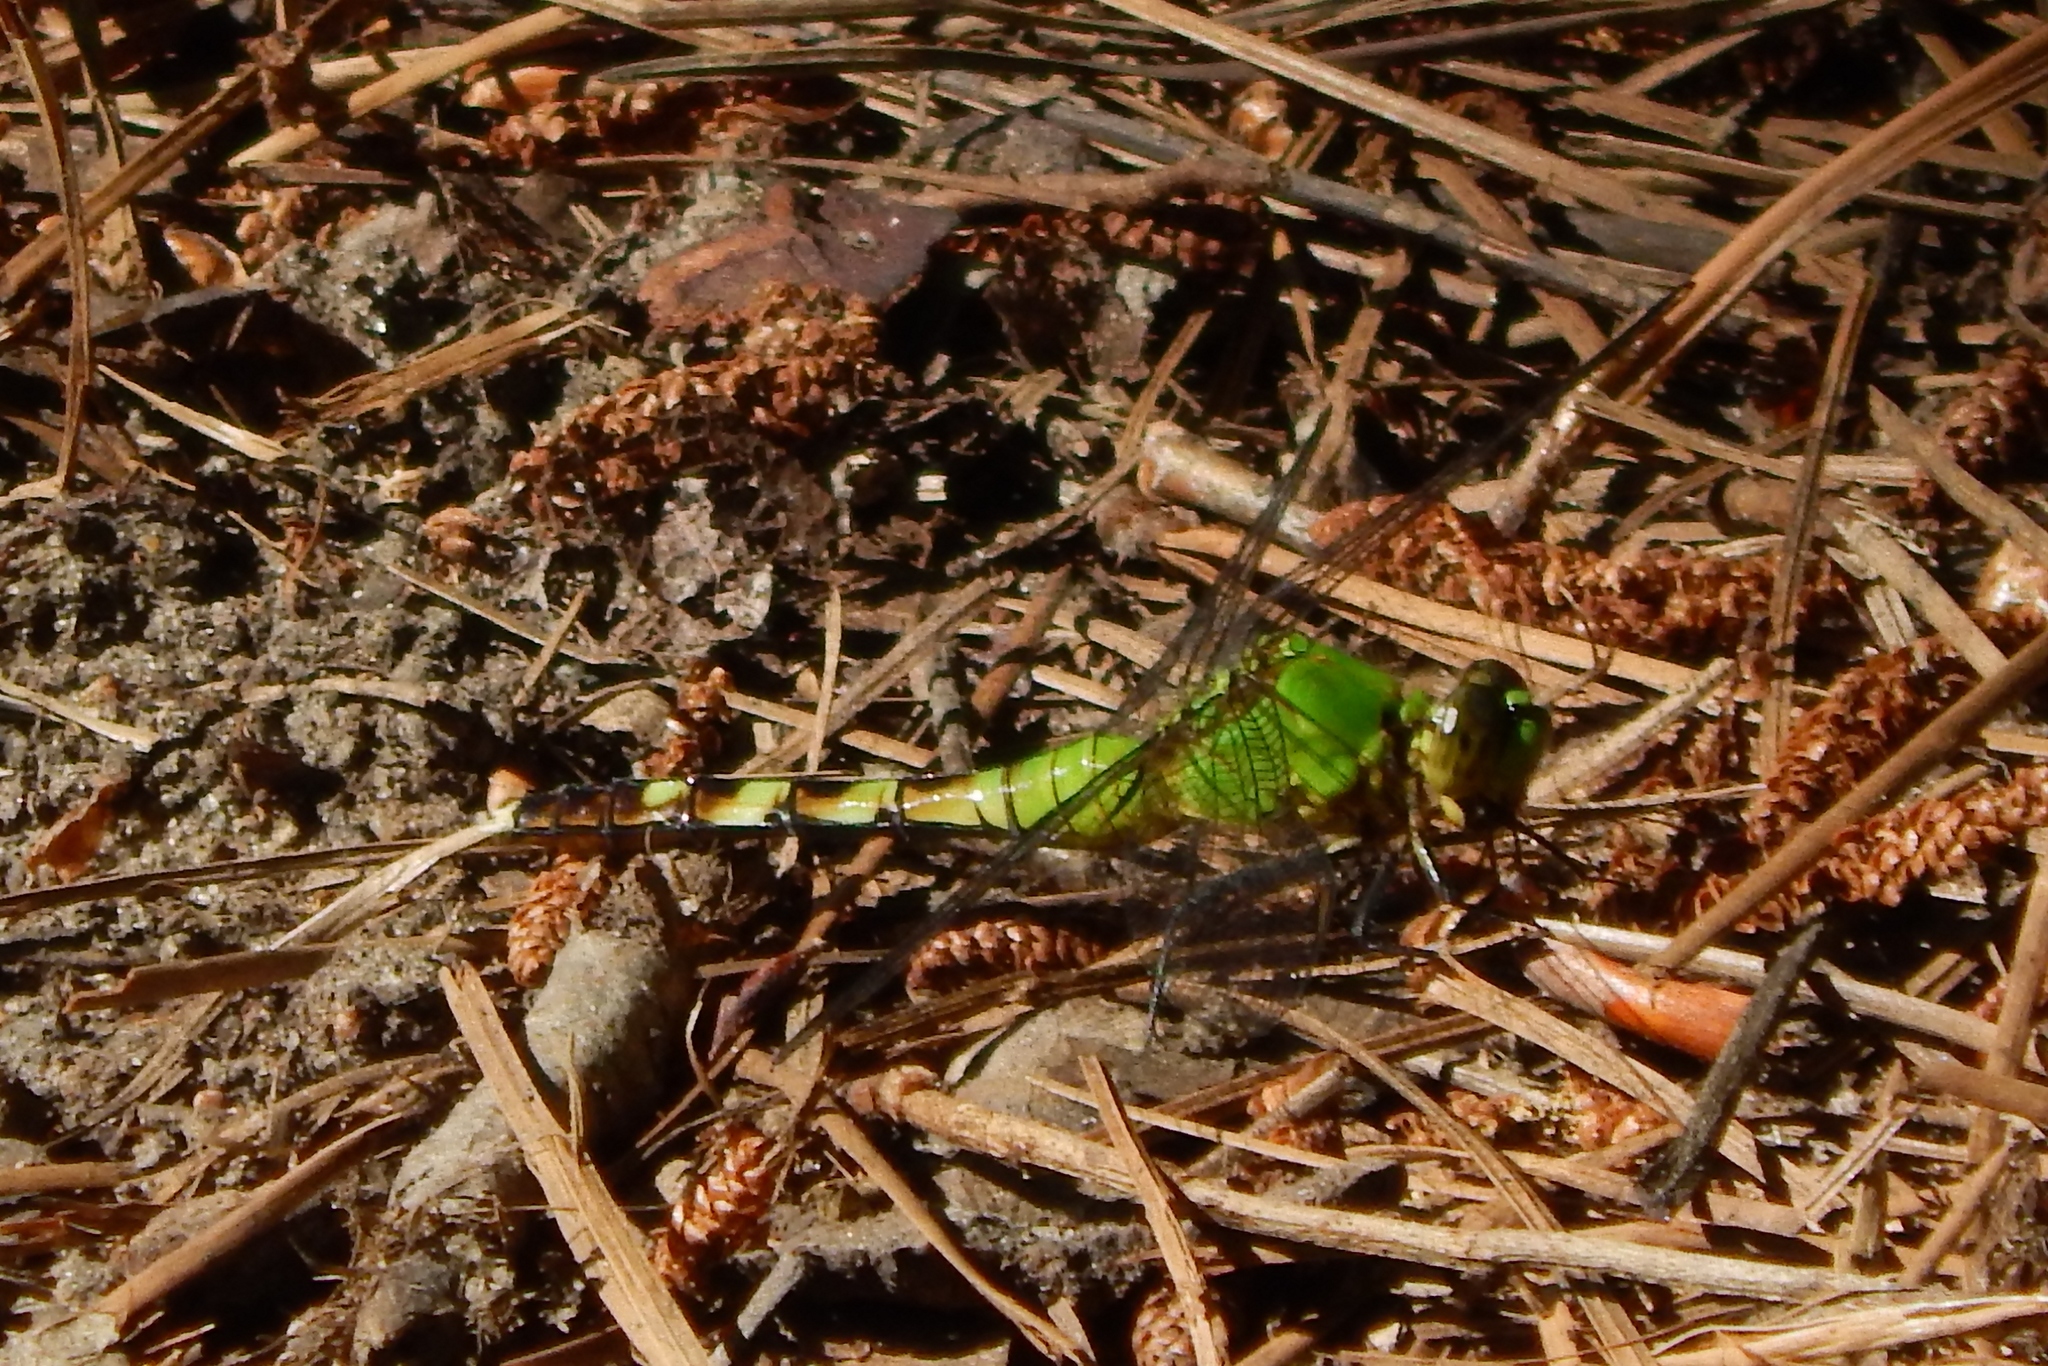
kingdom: Animalia
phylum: Arthropoda
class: Insecta
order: Odonata
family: Libellulidae
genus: Erythemis
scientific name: Erythemis simplicicollis
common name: Eastern pondhawk
